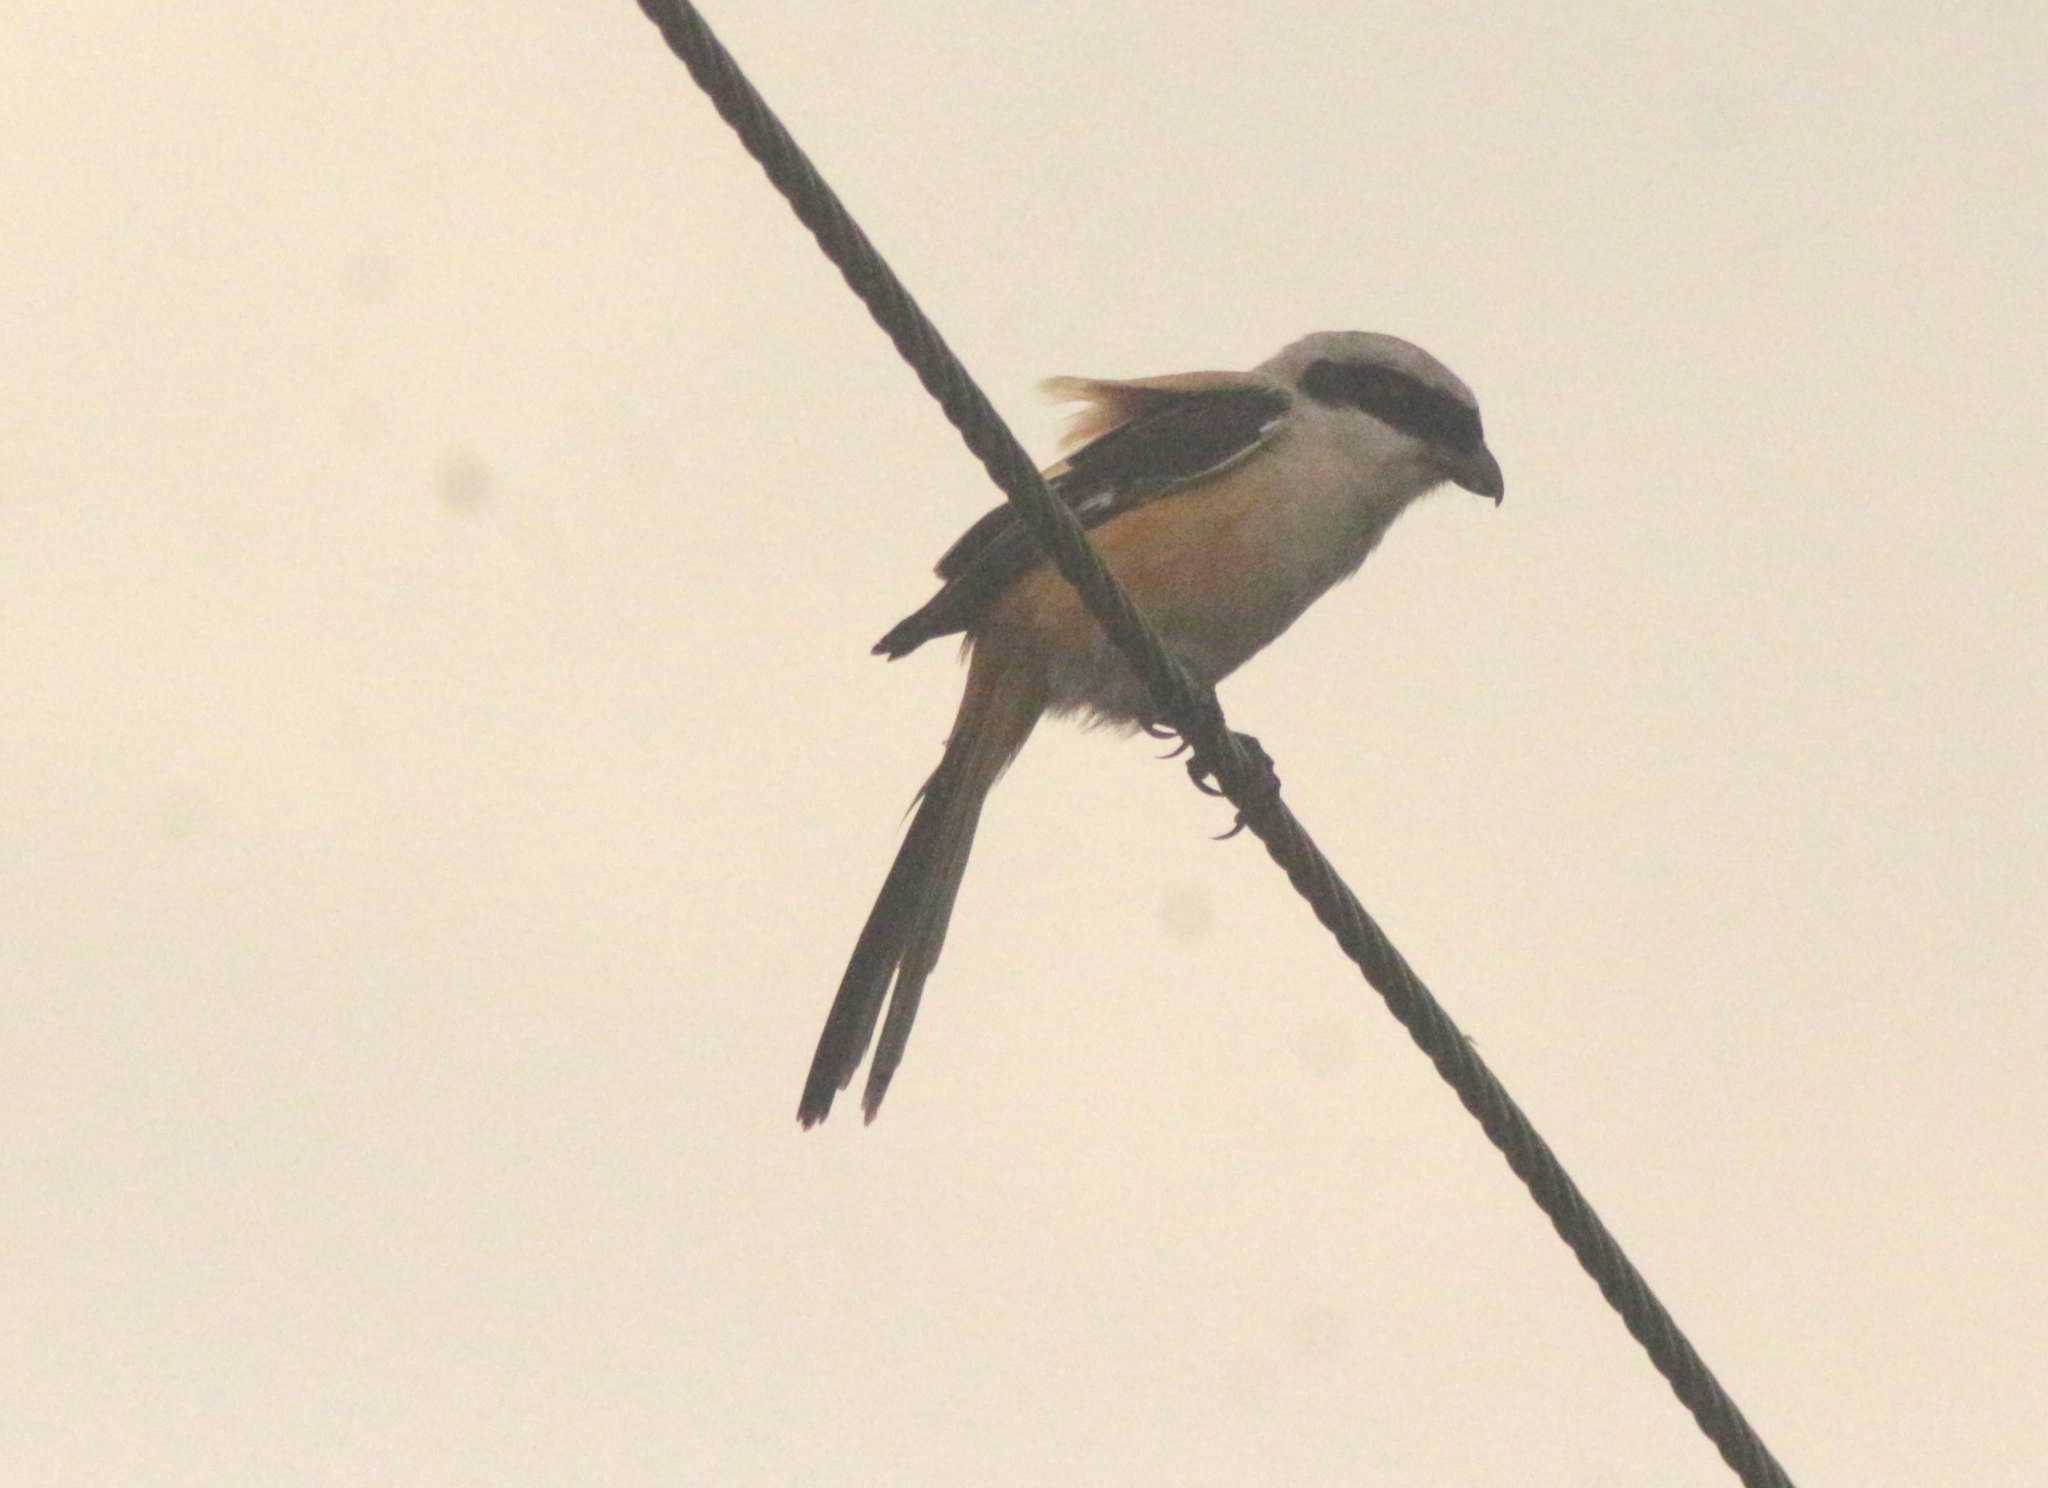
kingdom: Animalia
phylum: Chordata
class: Aves
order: Passeriformes
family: Laniidae
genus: Lanius
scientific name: Lanius schach
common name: Long-tailed shrike
